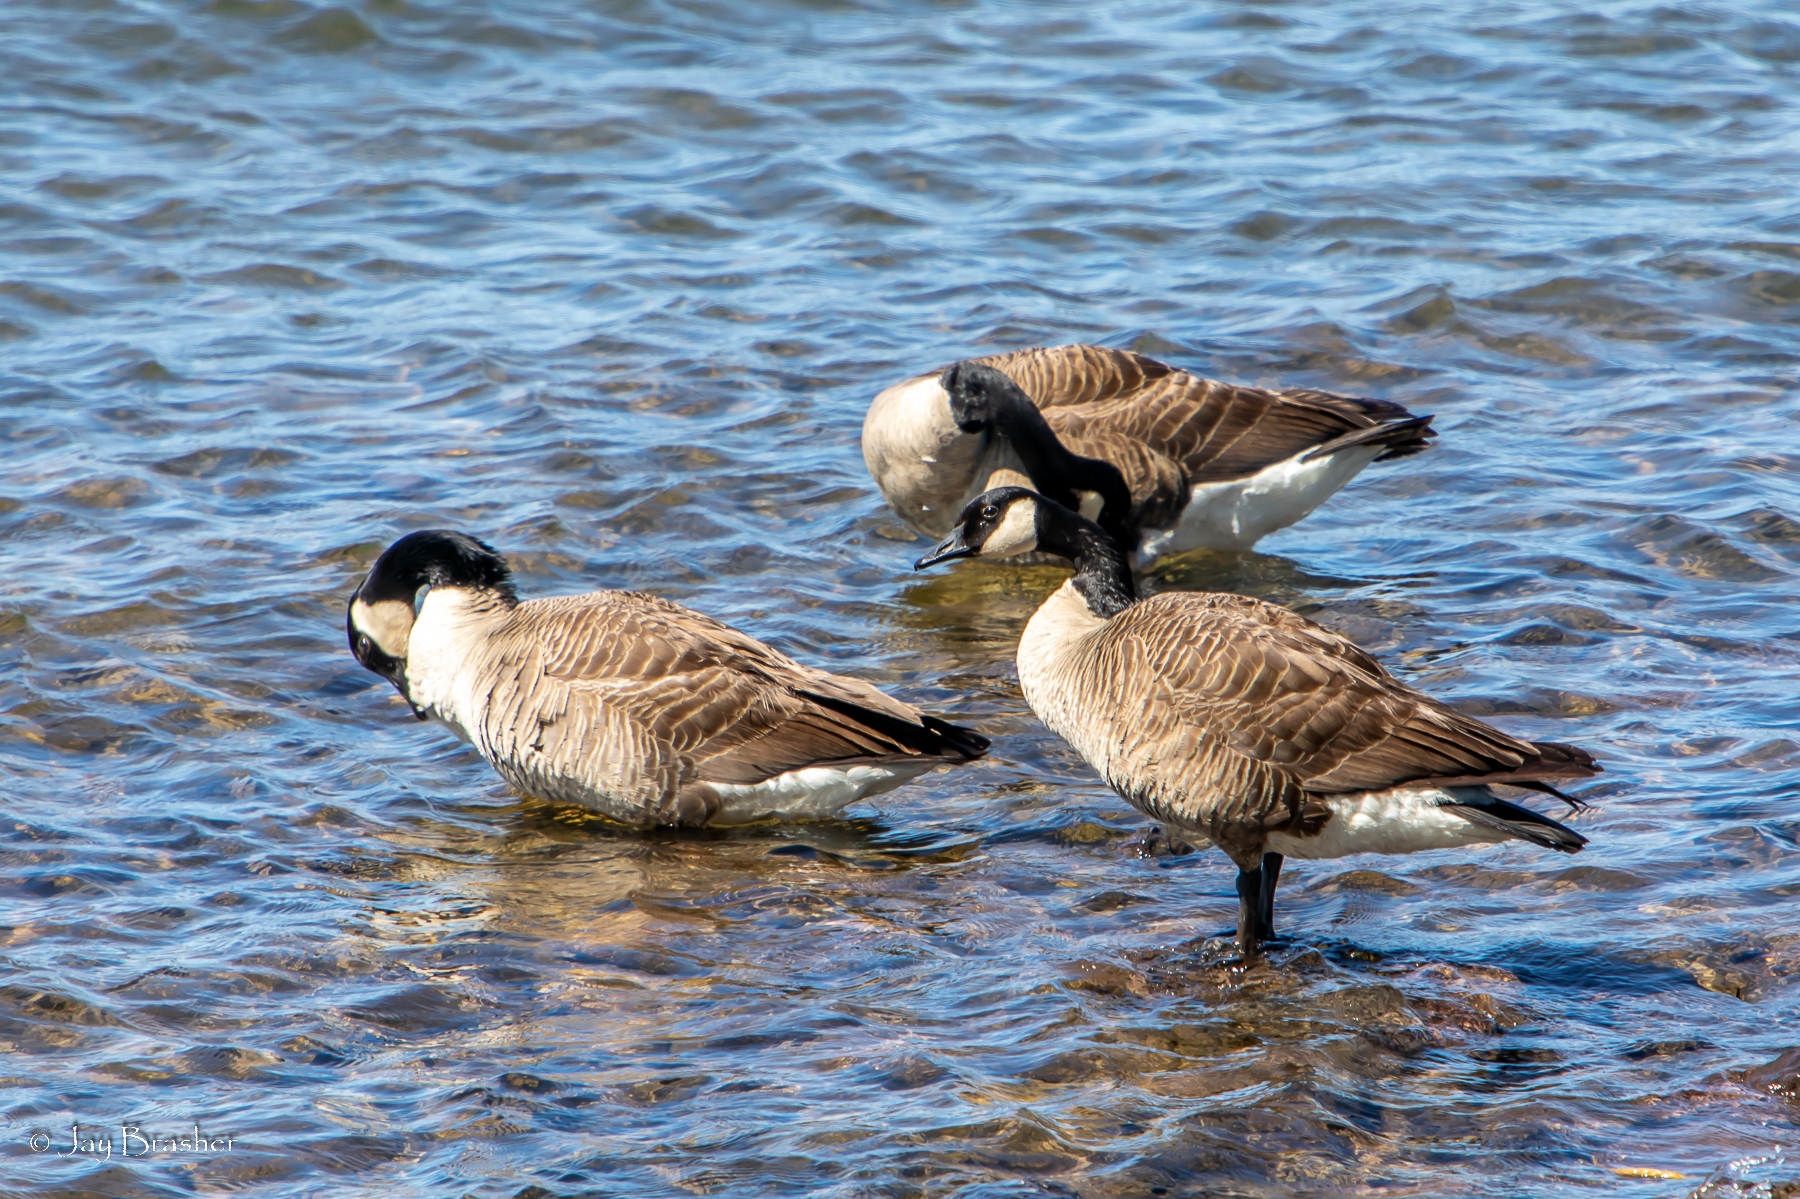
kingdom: Animalia
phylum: Chordata
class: Aves
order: Anseriformes
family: Anatidae
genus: Branta
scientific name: Branta canadensis
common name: Canada goose
